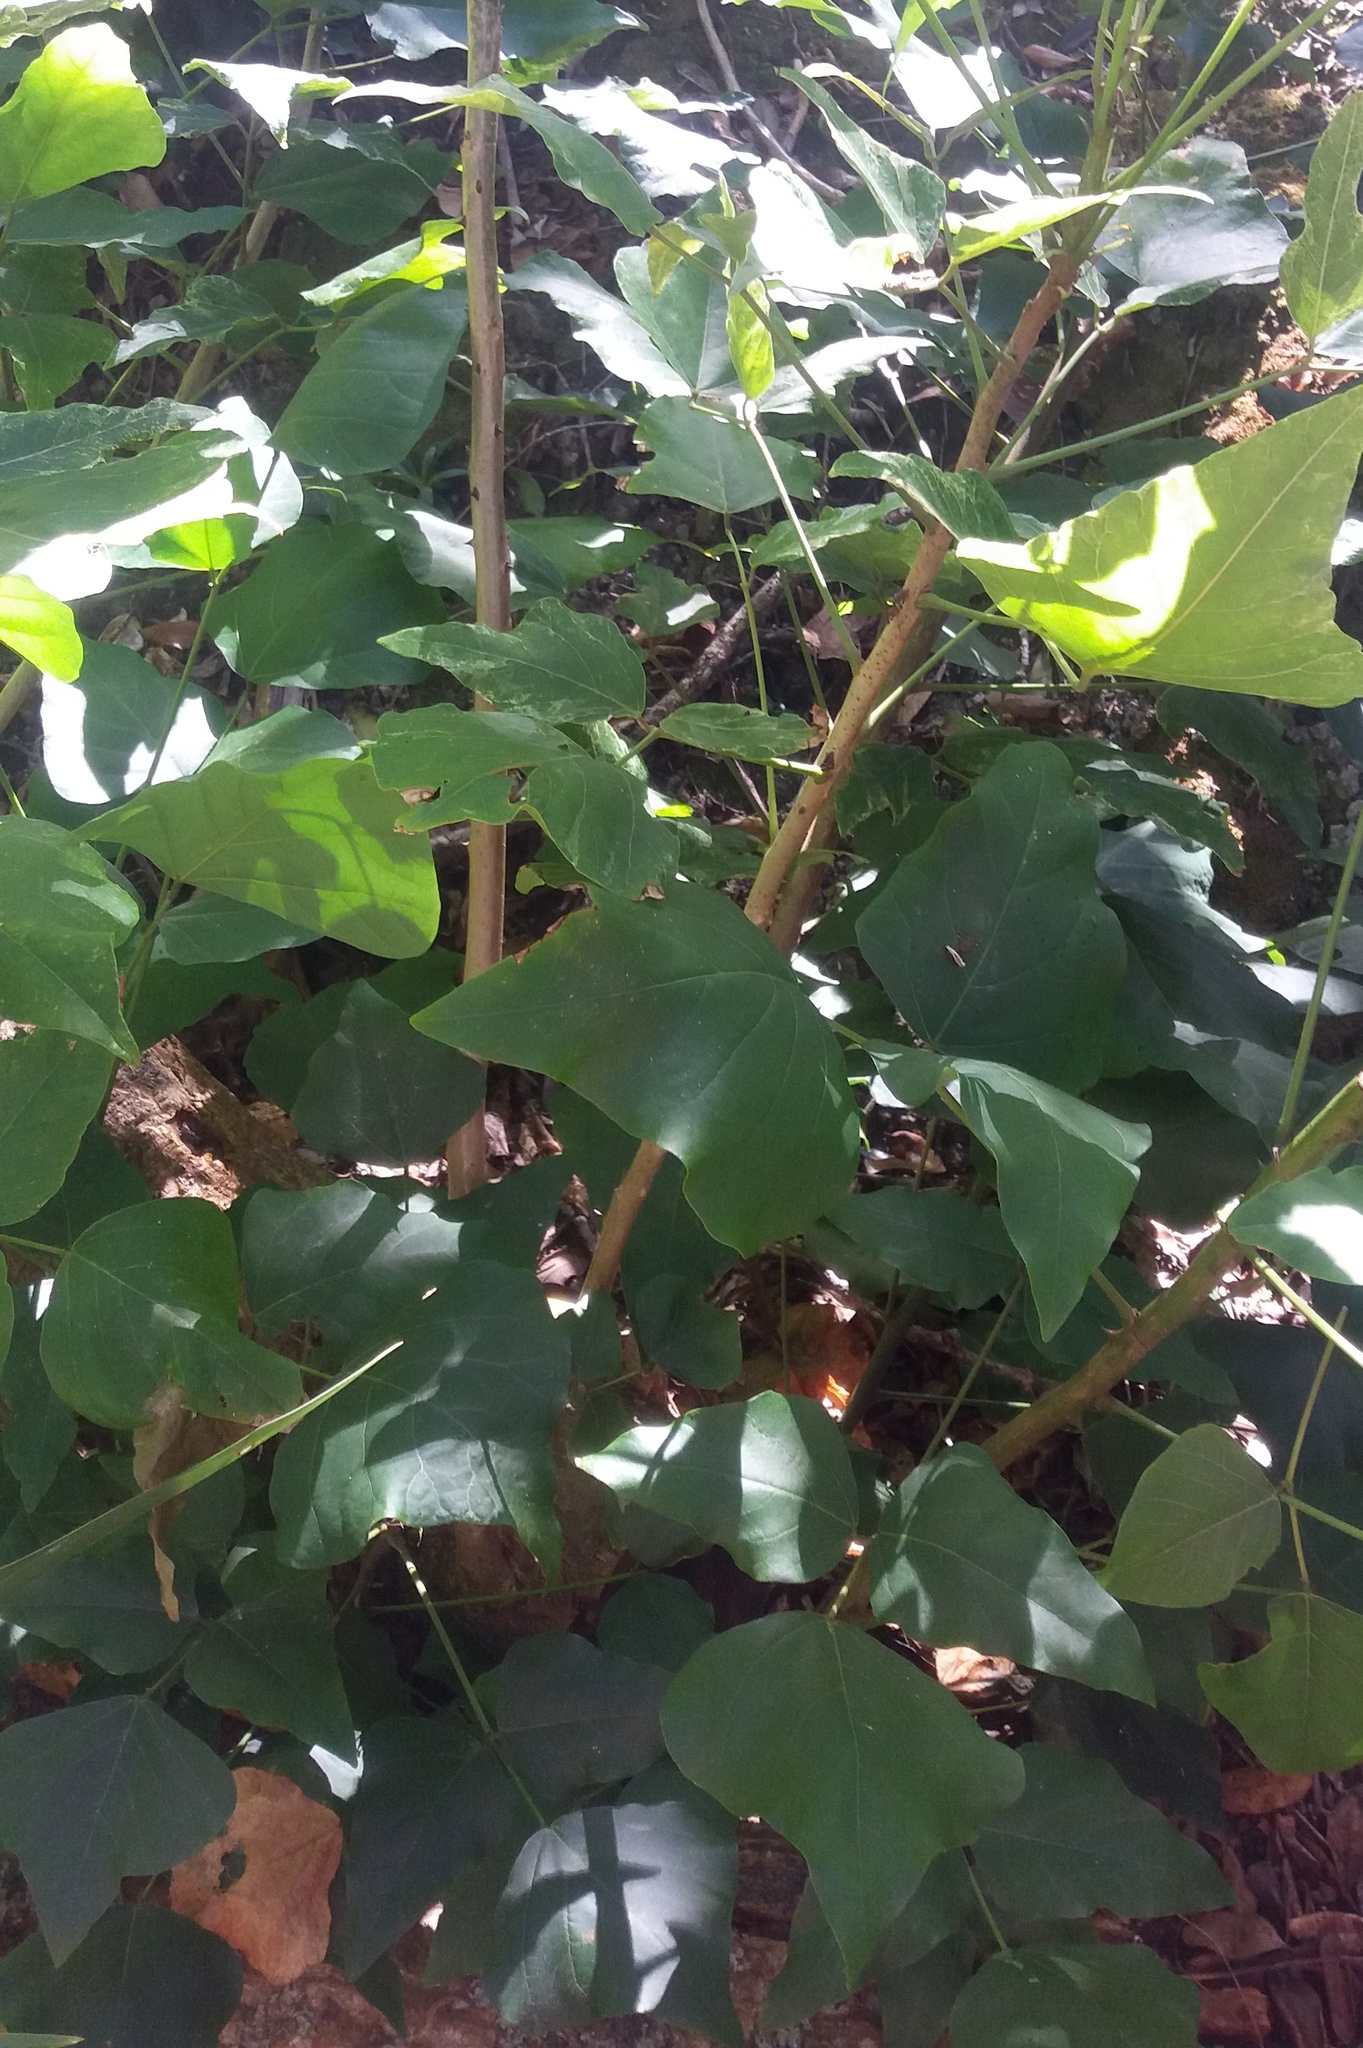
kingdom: Plantae
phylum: Tracheophyta
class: Magnoliopsida
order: Fabales
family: Fabaceae
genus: Erythrina
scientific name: Erythrina sykesii
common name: Coraltree
